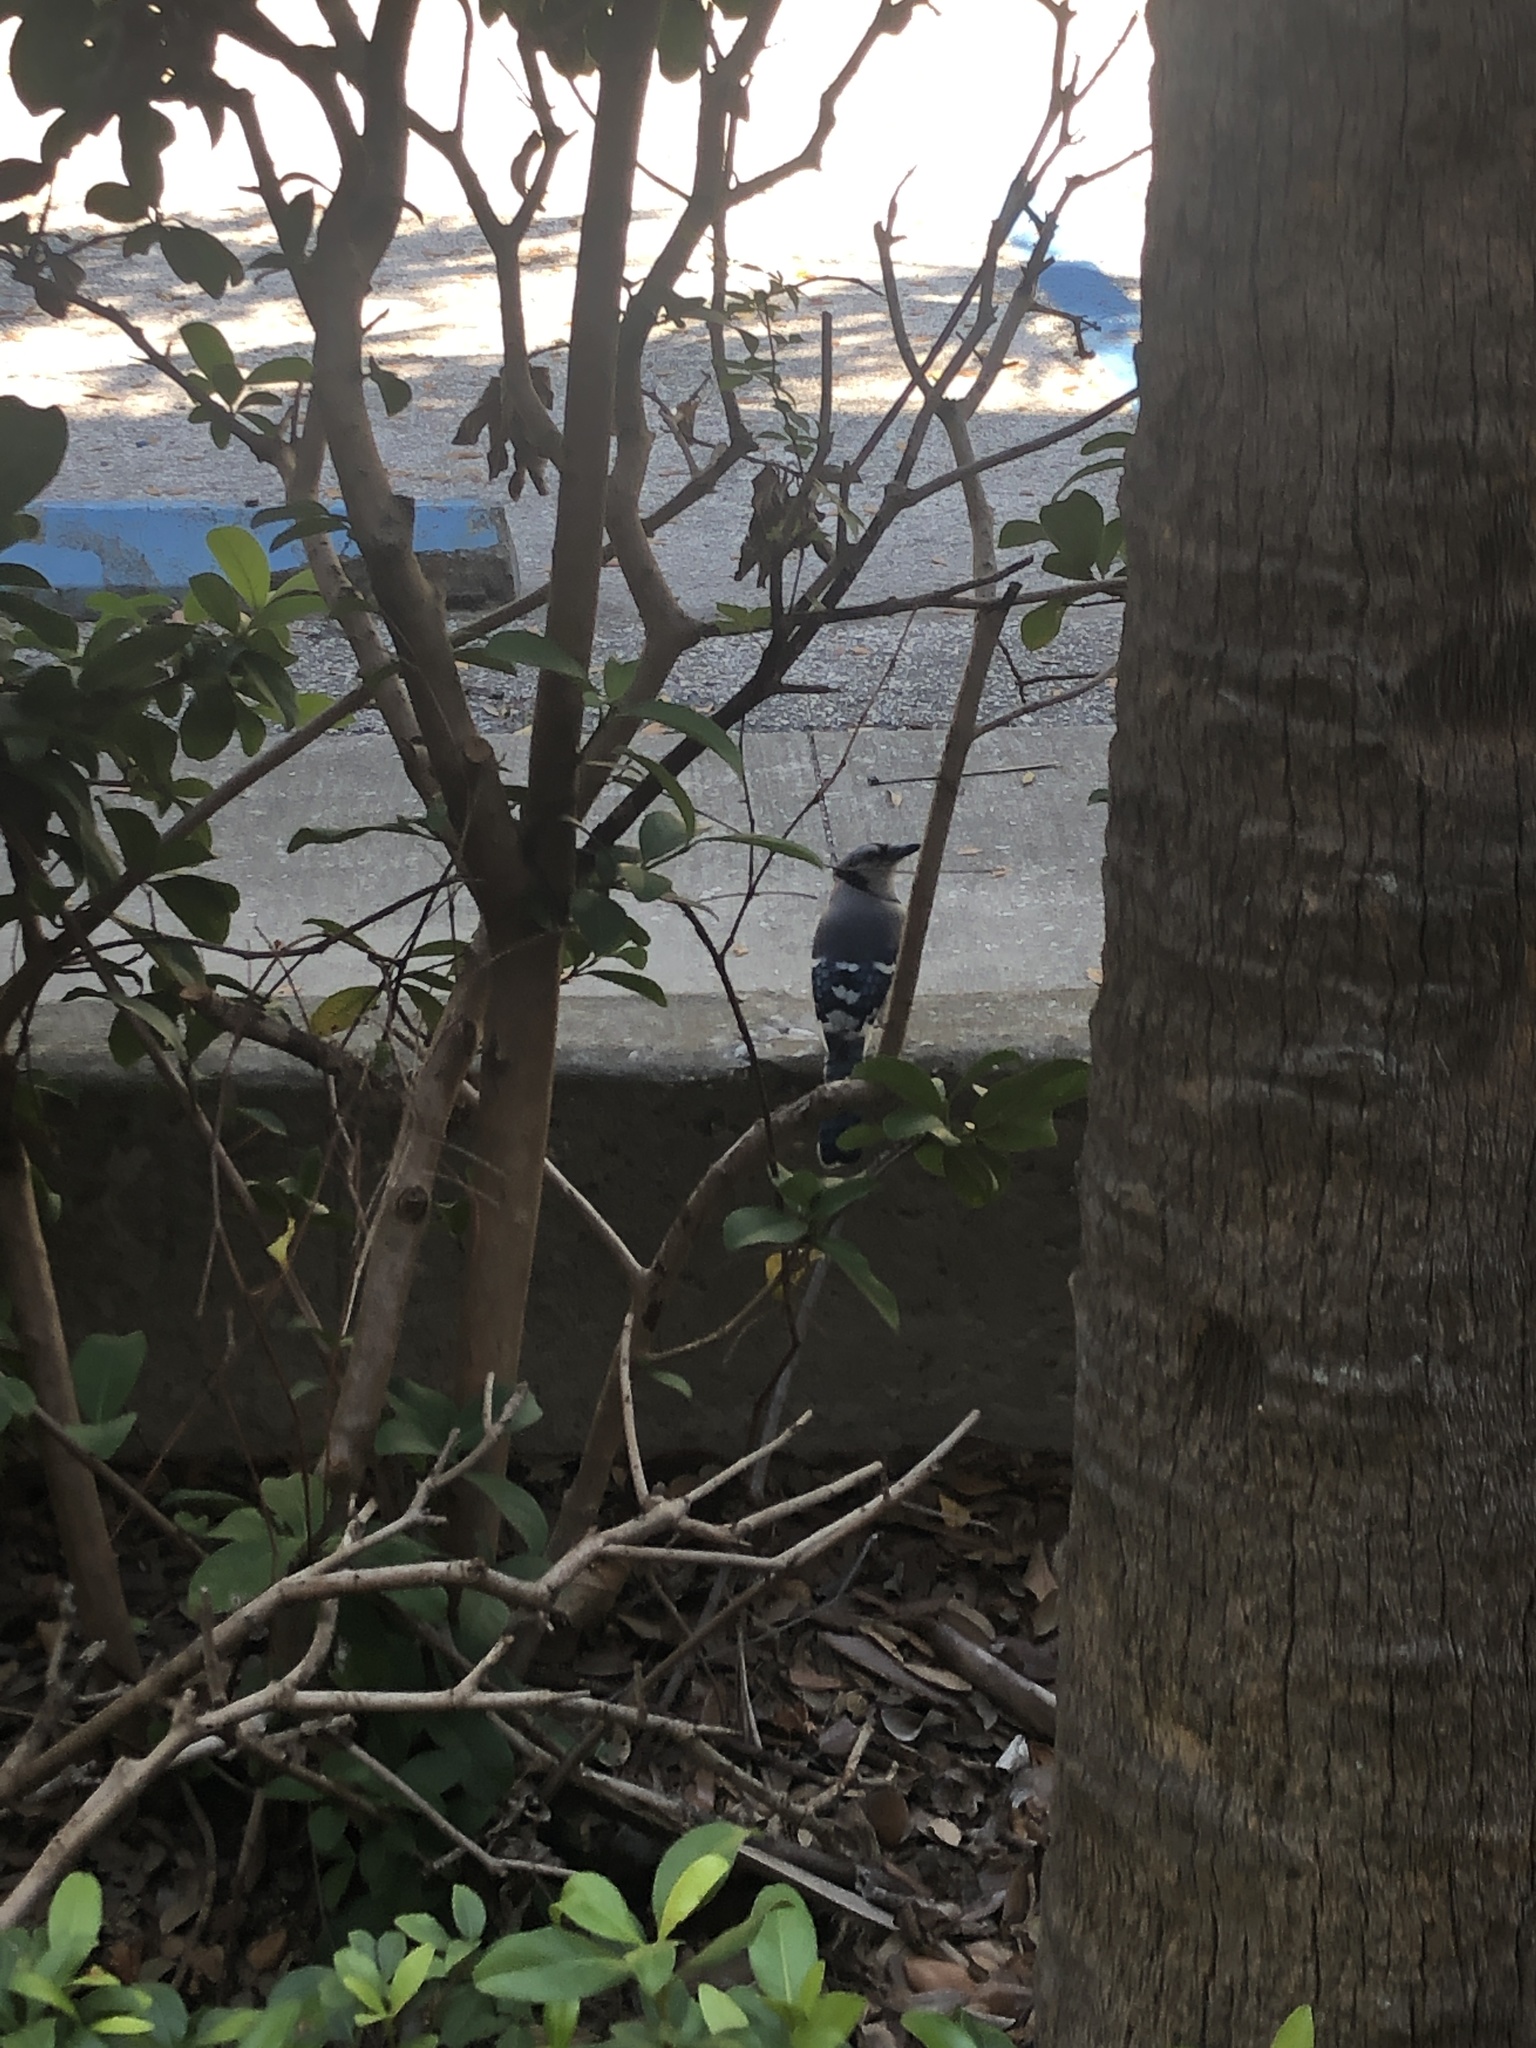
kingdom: Animalia
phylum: Chordata
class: Aves
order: Passeriformes
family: Corvidae
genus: Cyanocitta
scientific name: Cyanocitta cristata
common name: Blue jay
